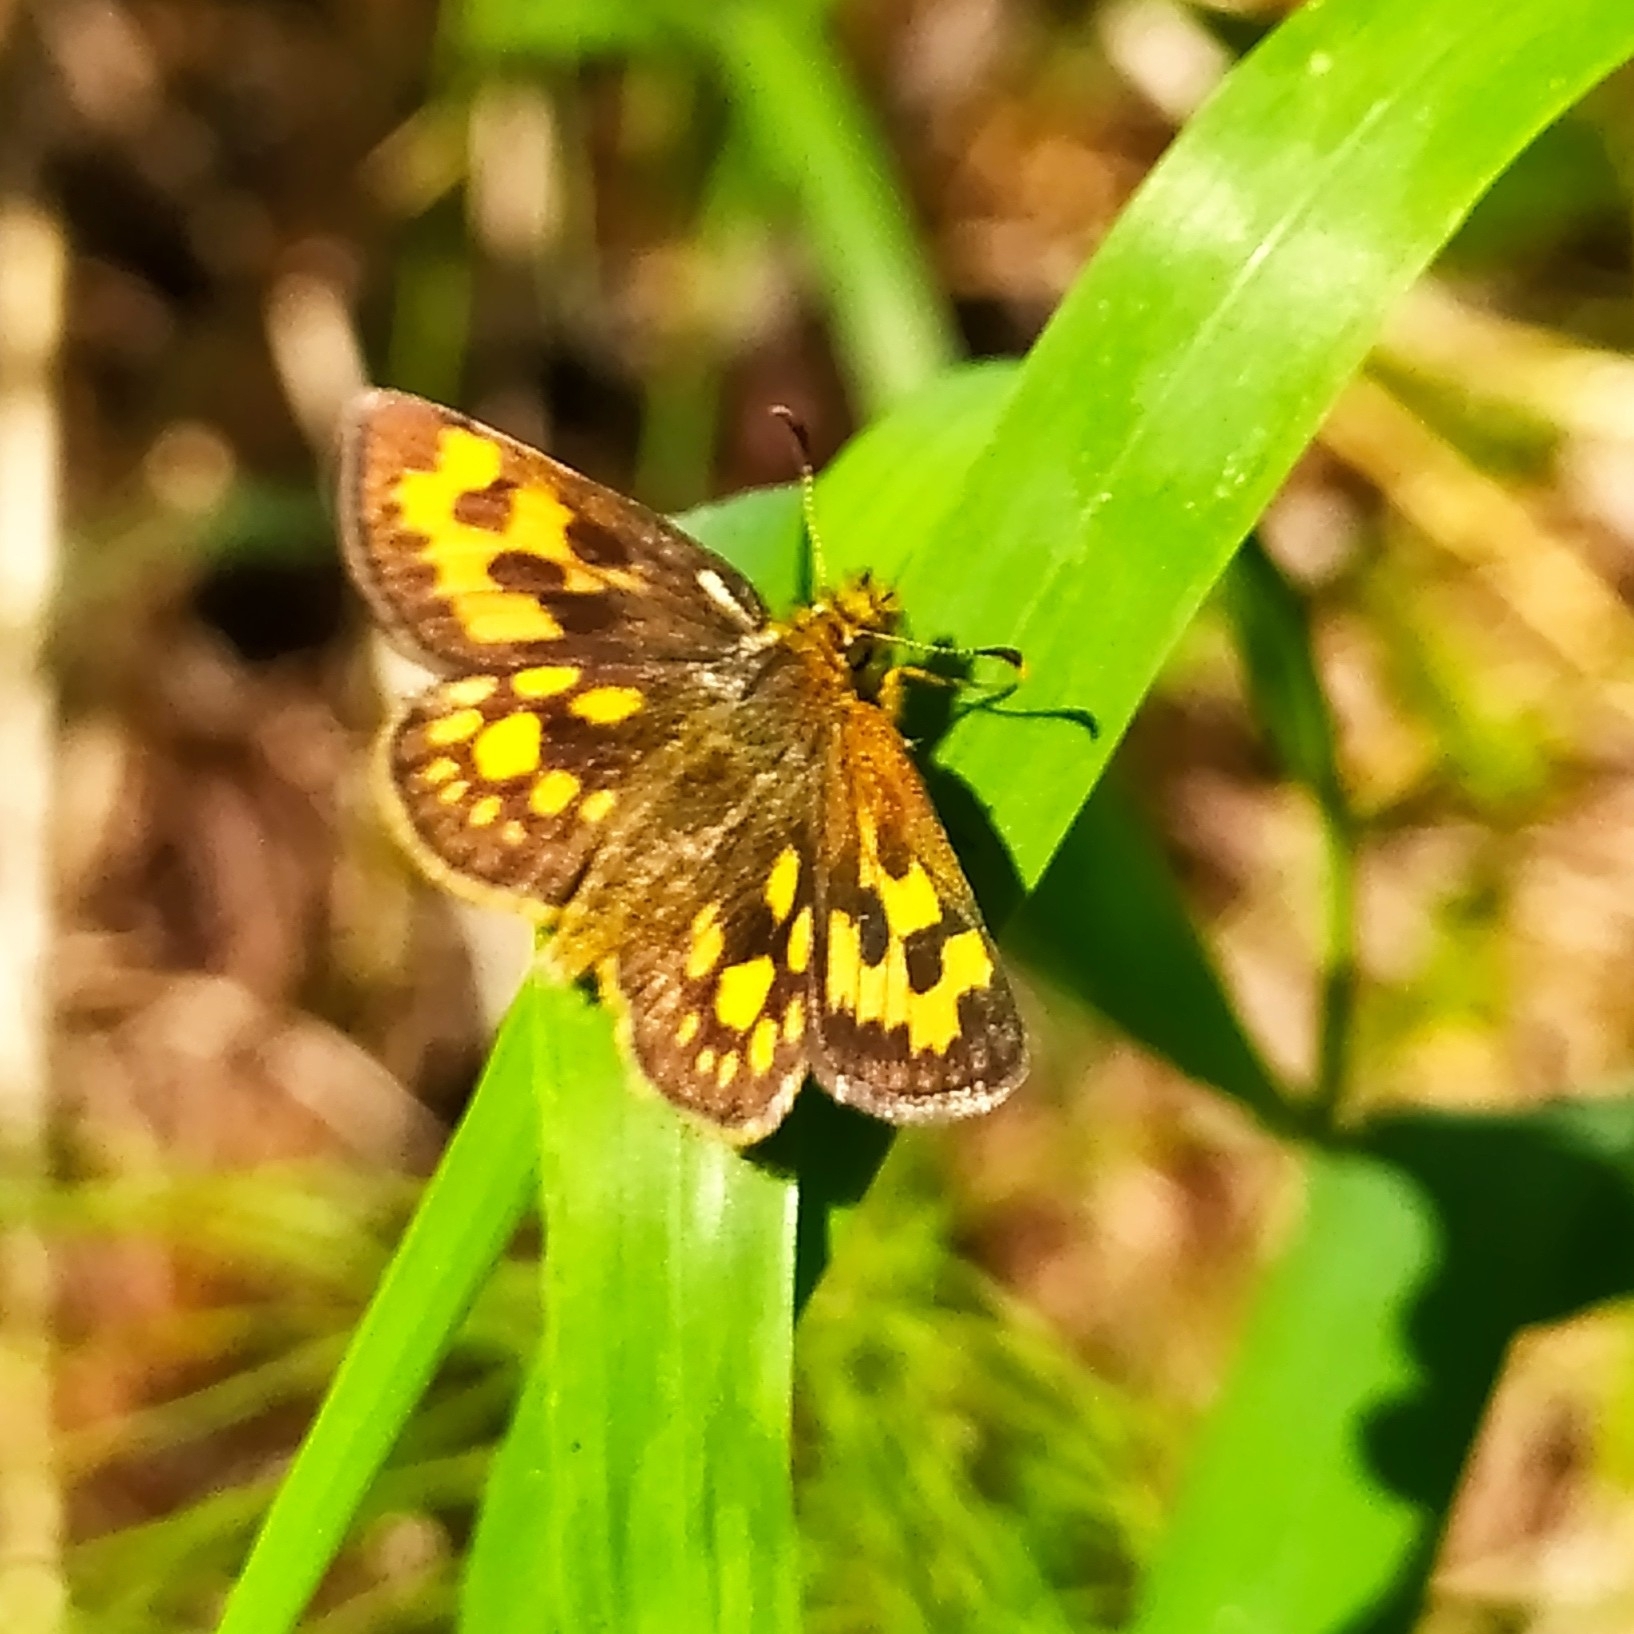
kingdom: Animalia
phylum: Arthropoda
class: Insecta
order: Lepidoptera
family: Hesperiidae
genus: Carterocephalus
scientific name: Carterocephalus silvicola
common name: Northern chequered skipper
